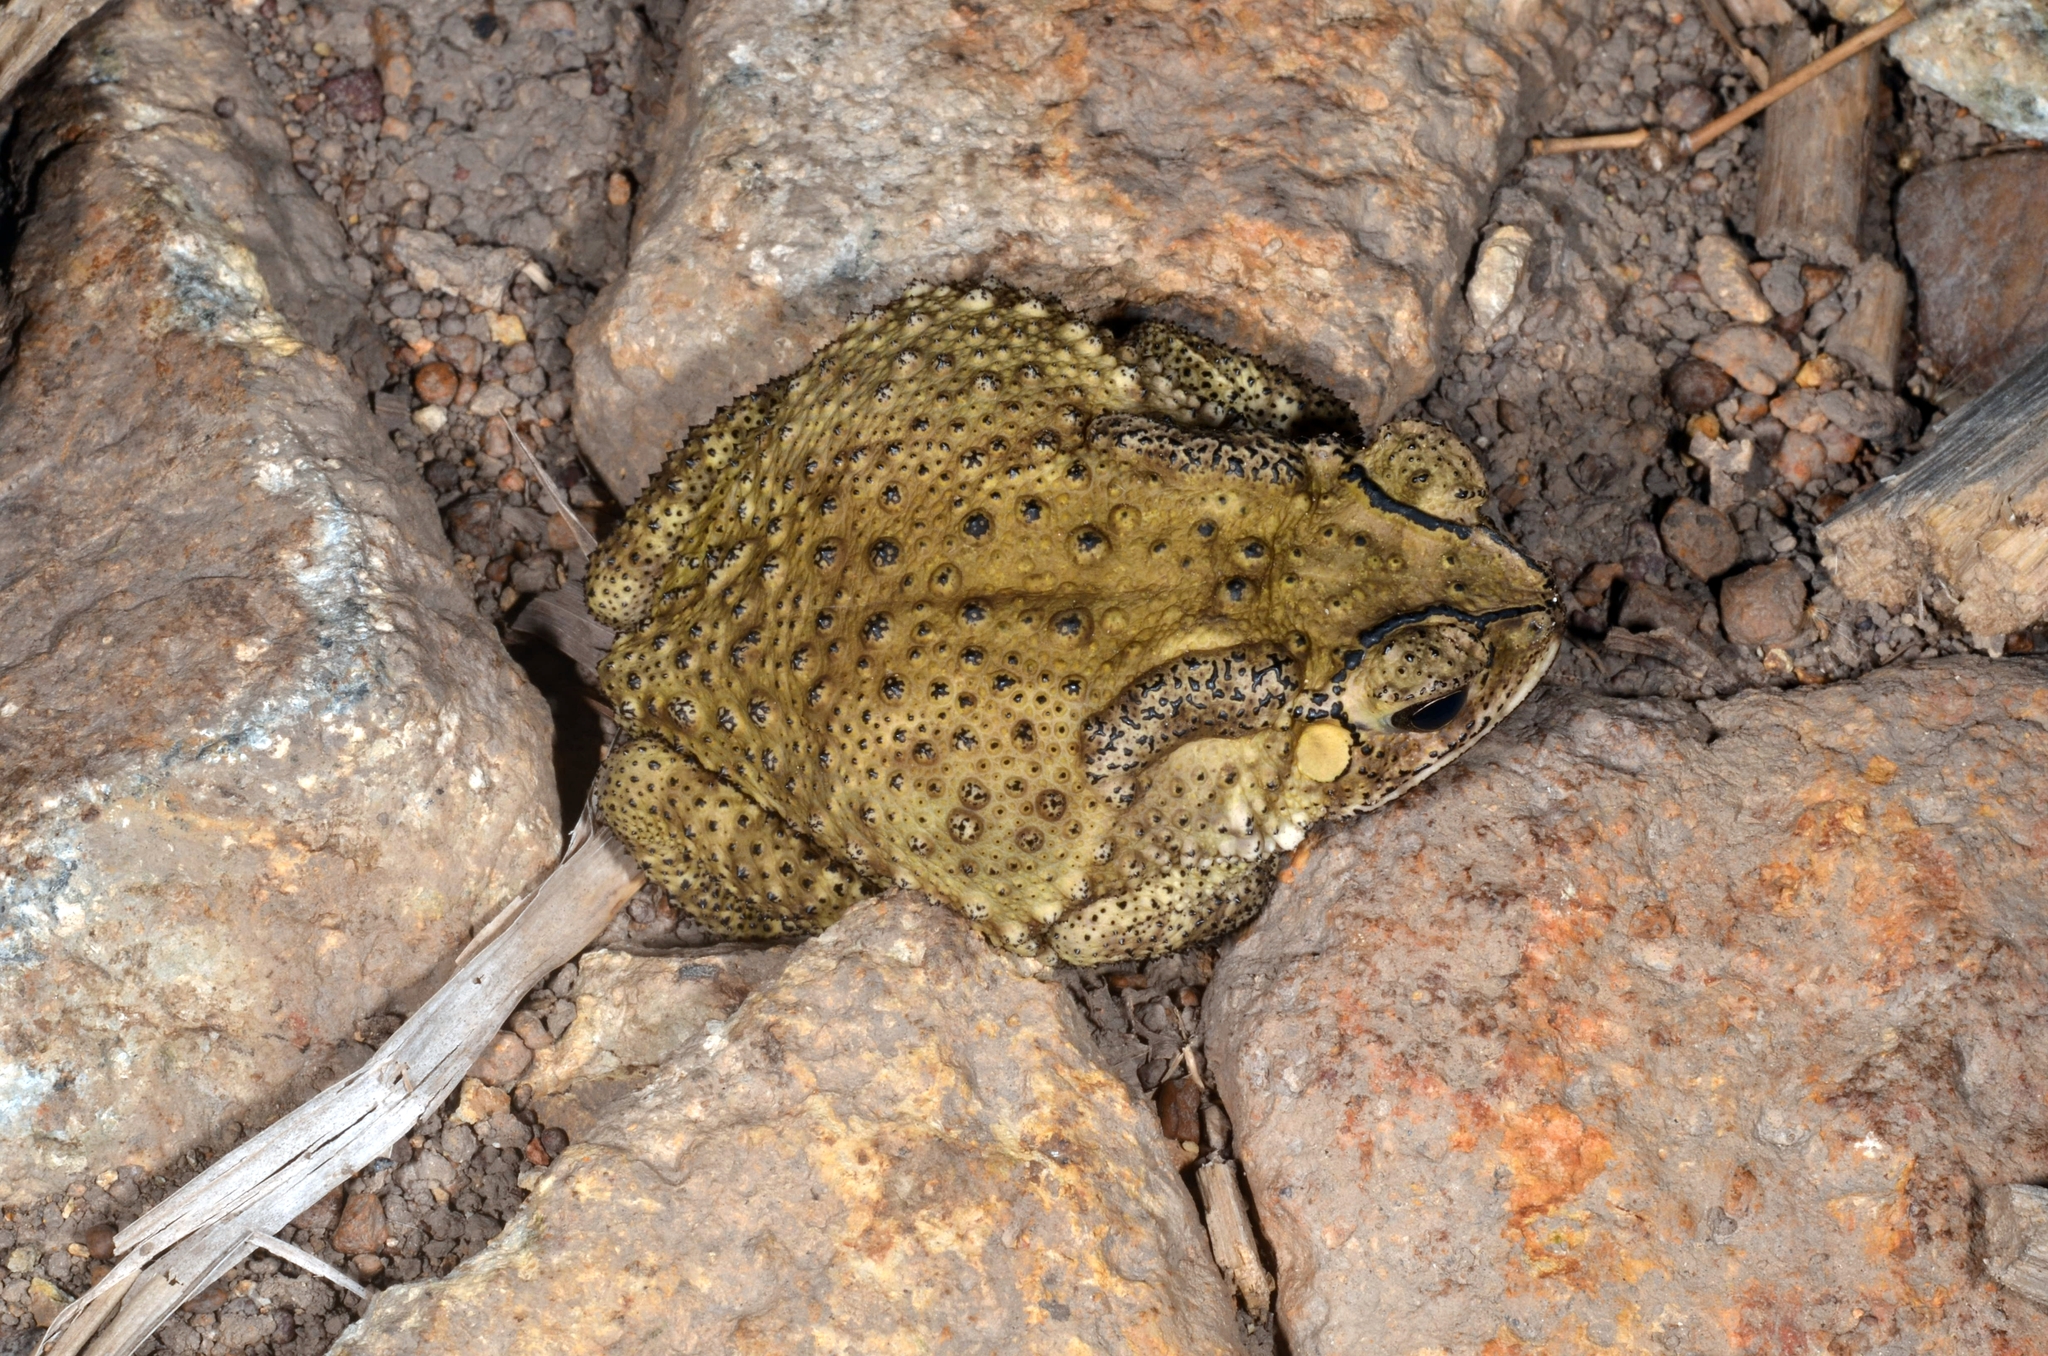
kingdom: Animalia
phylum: Chordata
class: Amphibia
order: Anura
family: Bufonidae
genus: Duttaphrynus
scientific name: Duttaphrynus melanostictus
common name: Common sunda toad
